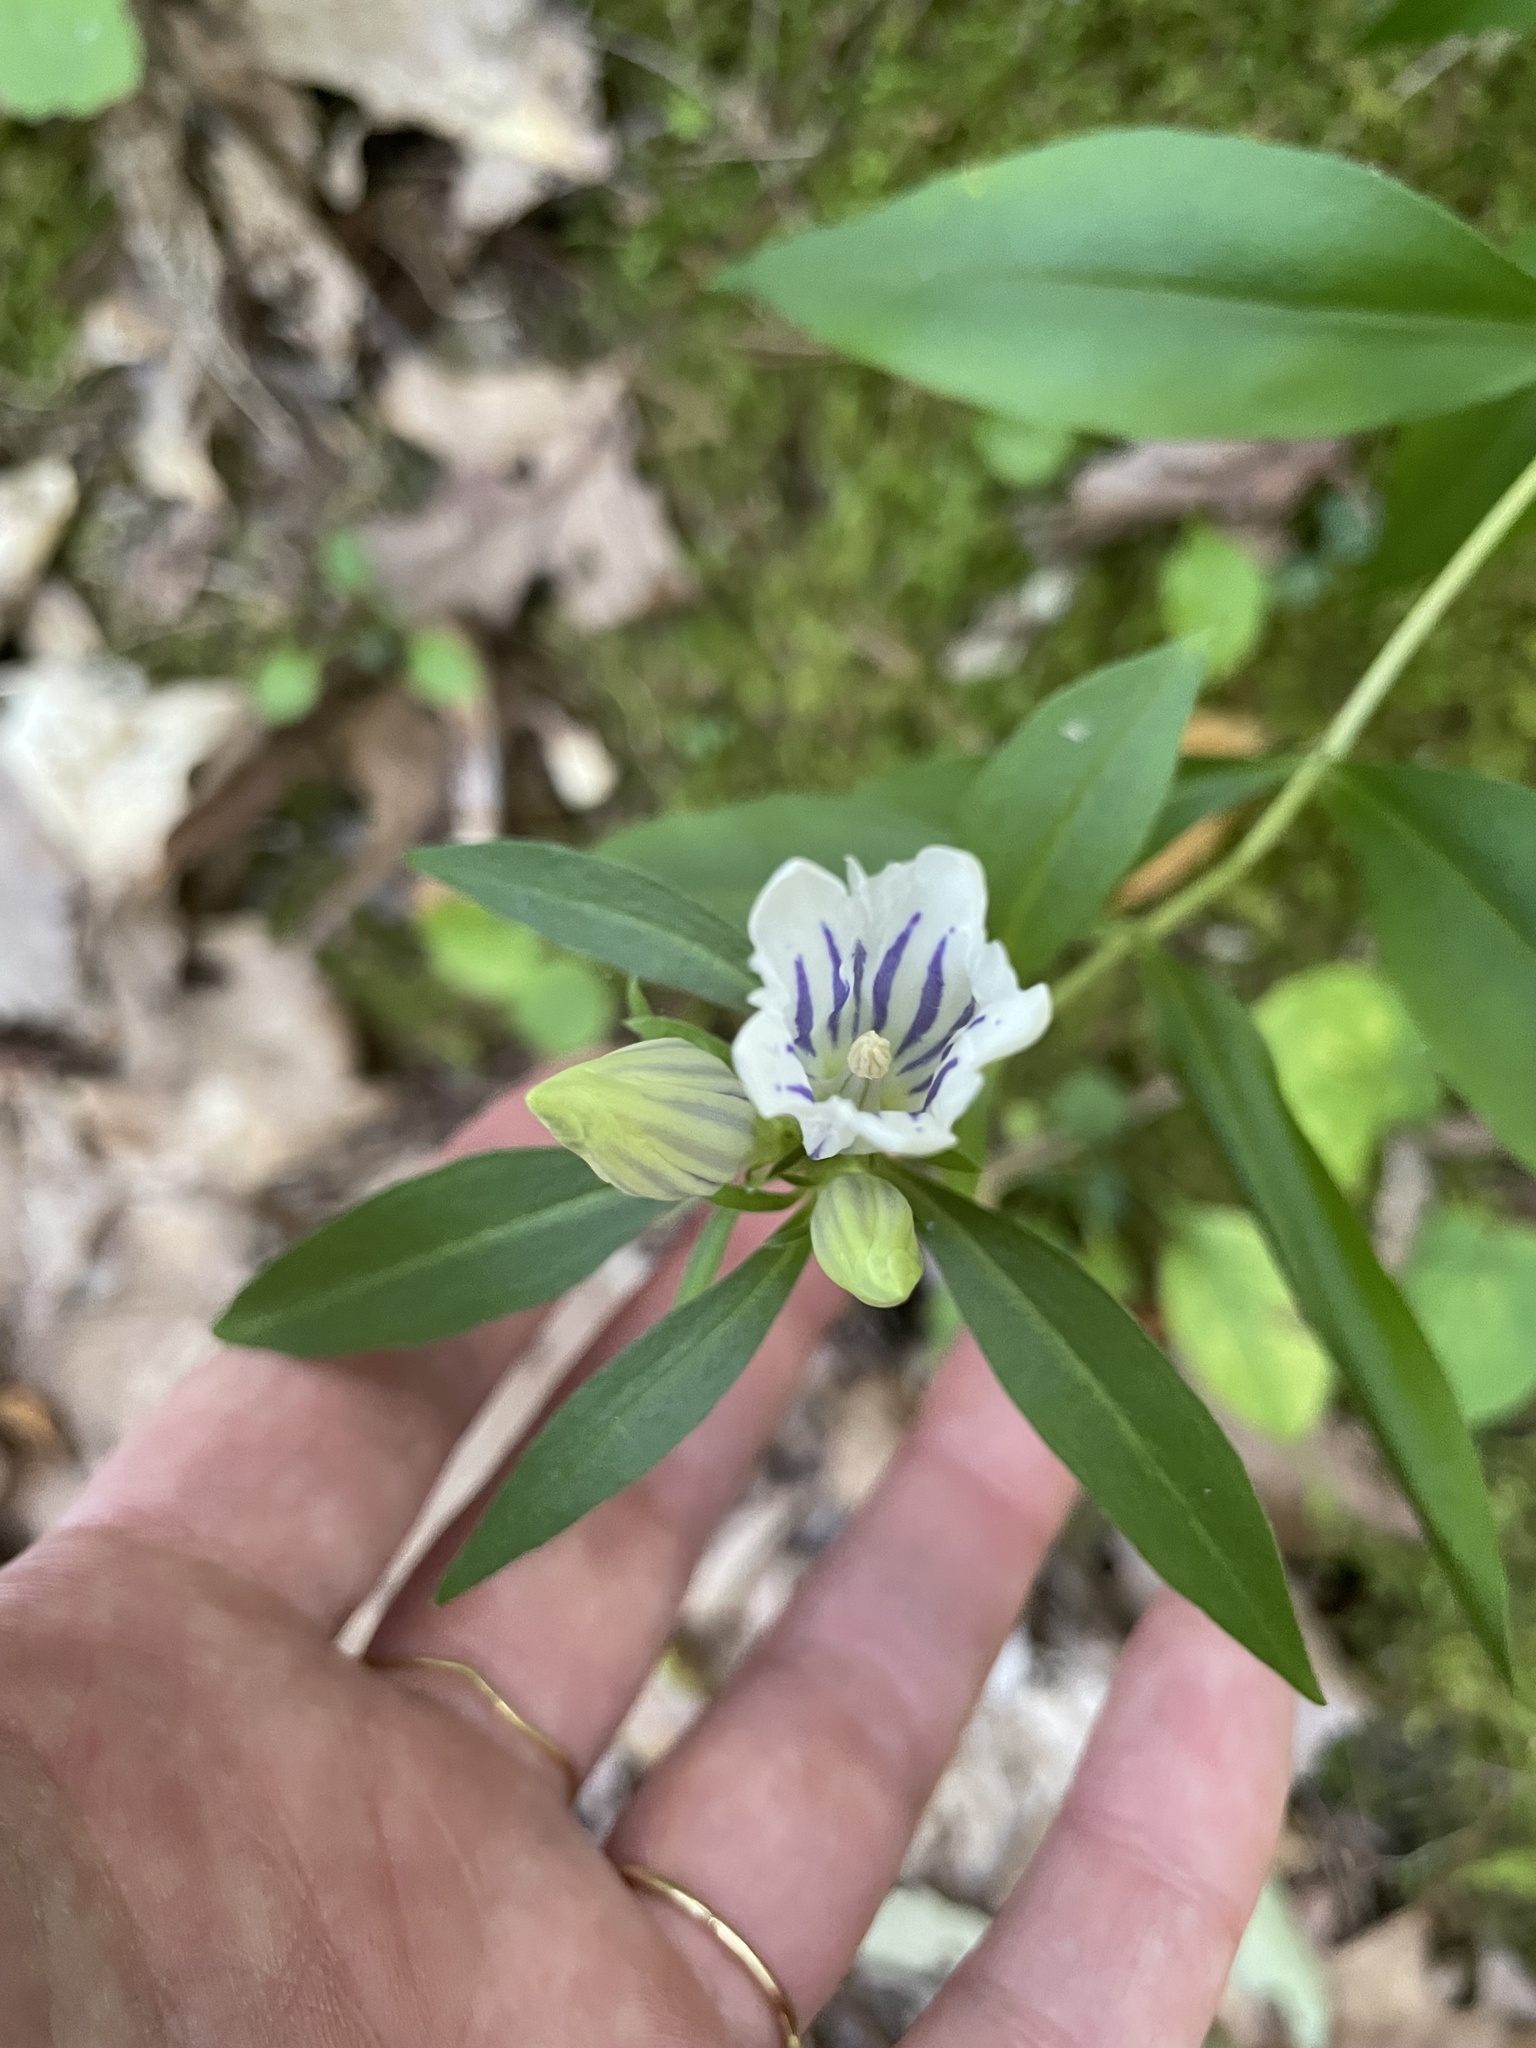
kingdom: Plantae
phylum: Tracheophyta
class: Magnoliopsida
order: Gentianales
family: Gentianaceae
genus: Gentiana
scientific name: Gentiana decora
